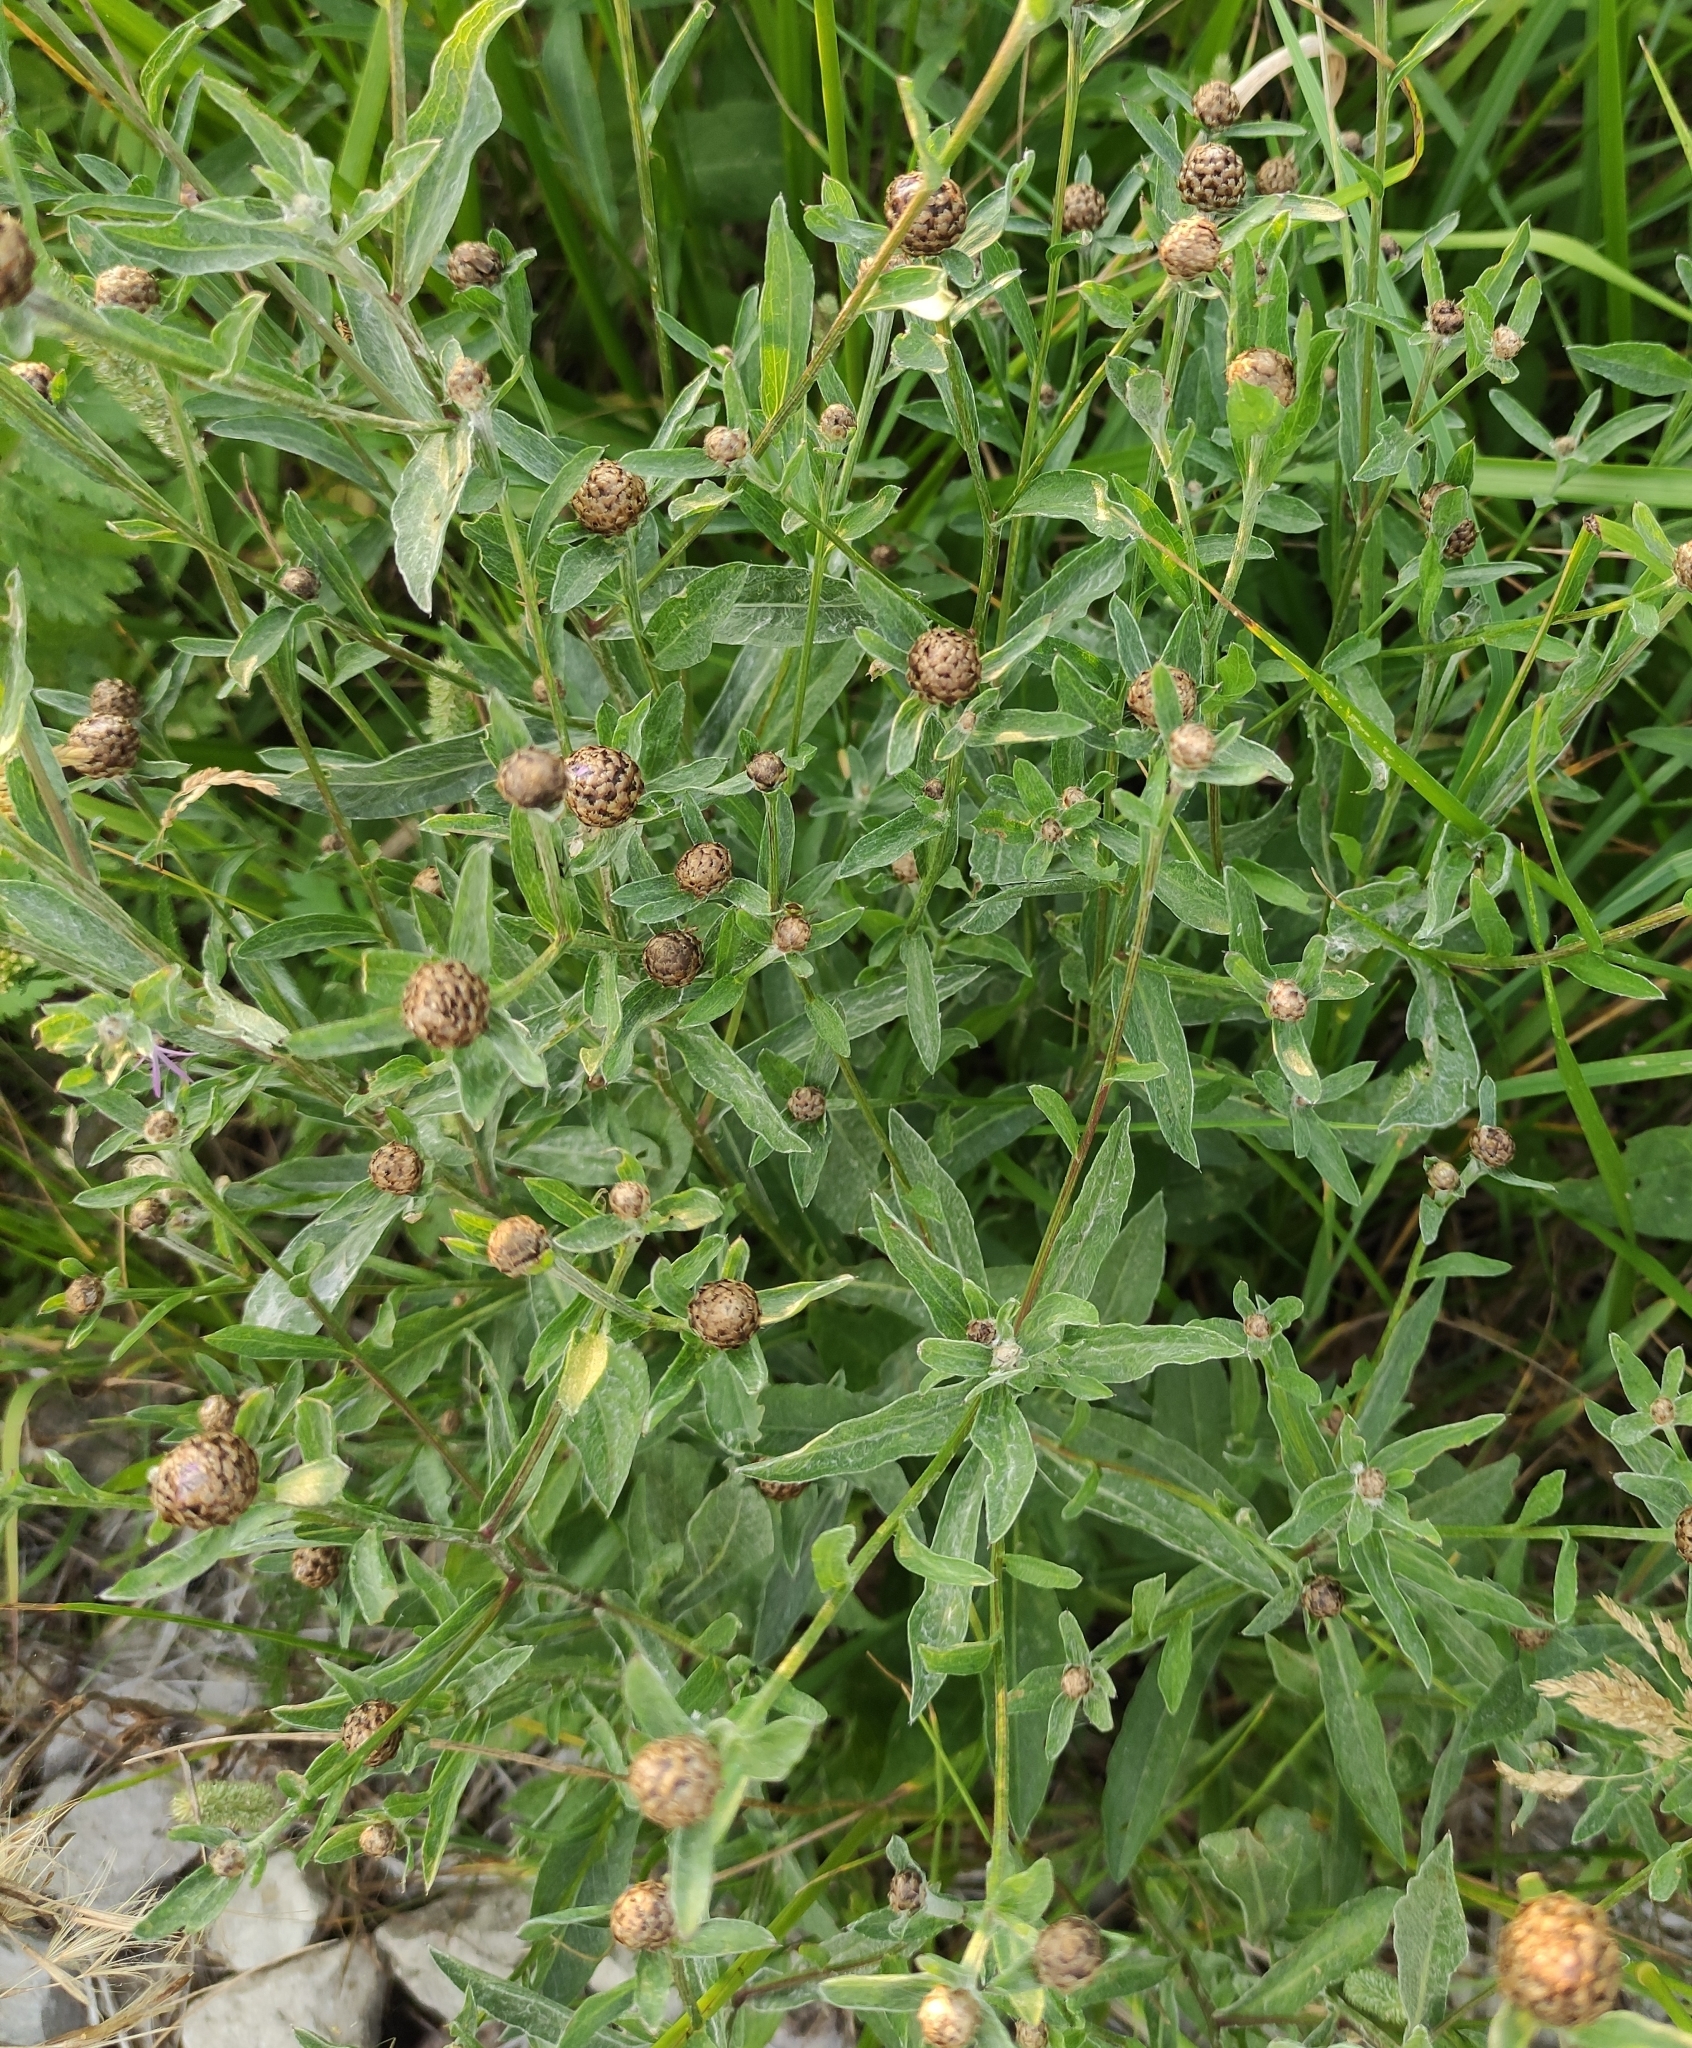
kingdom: Plantae
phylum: Tracheophyta
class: Magnoliopsida
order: Asterales
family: Asteraceae
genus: Centaurea
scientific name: Centaurea jacea
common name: Brown knapweed
